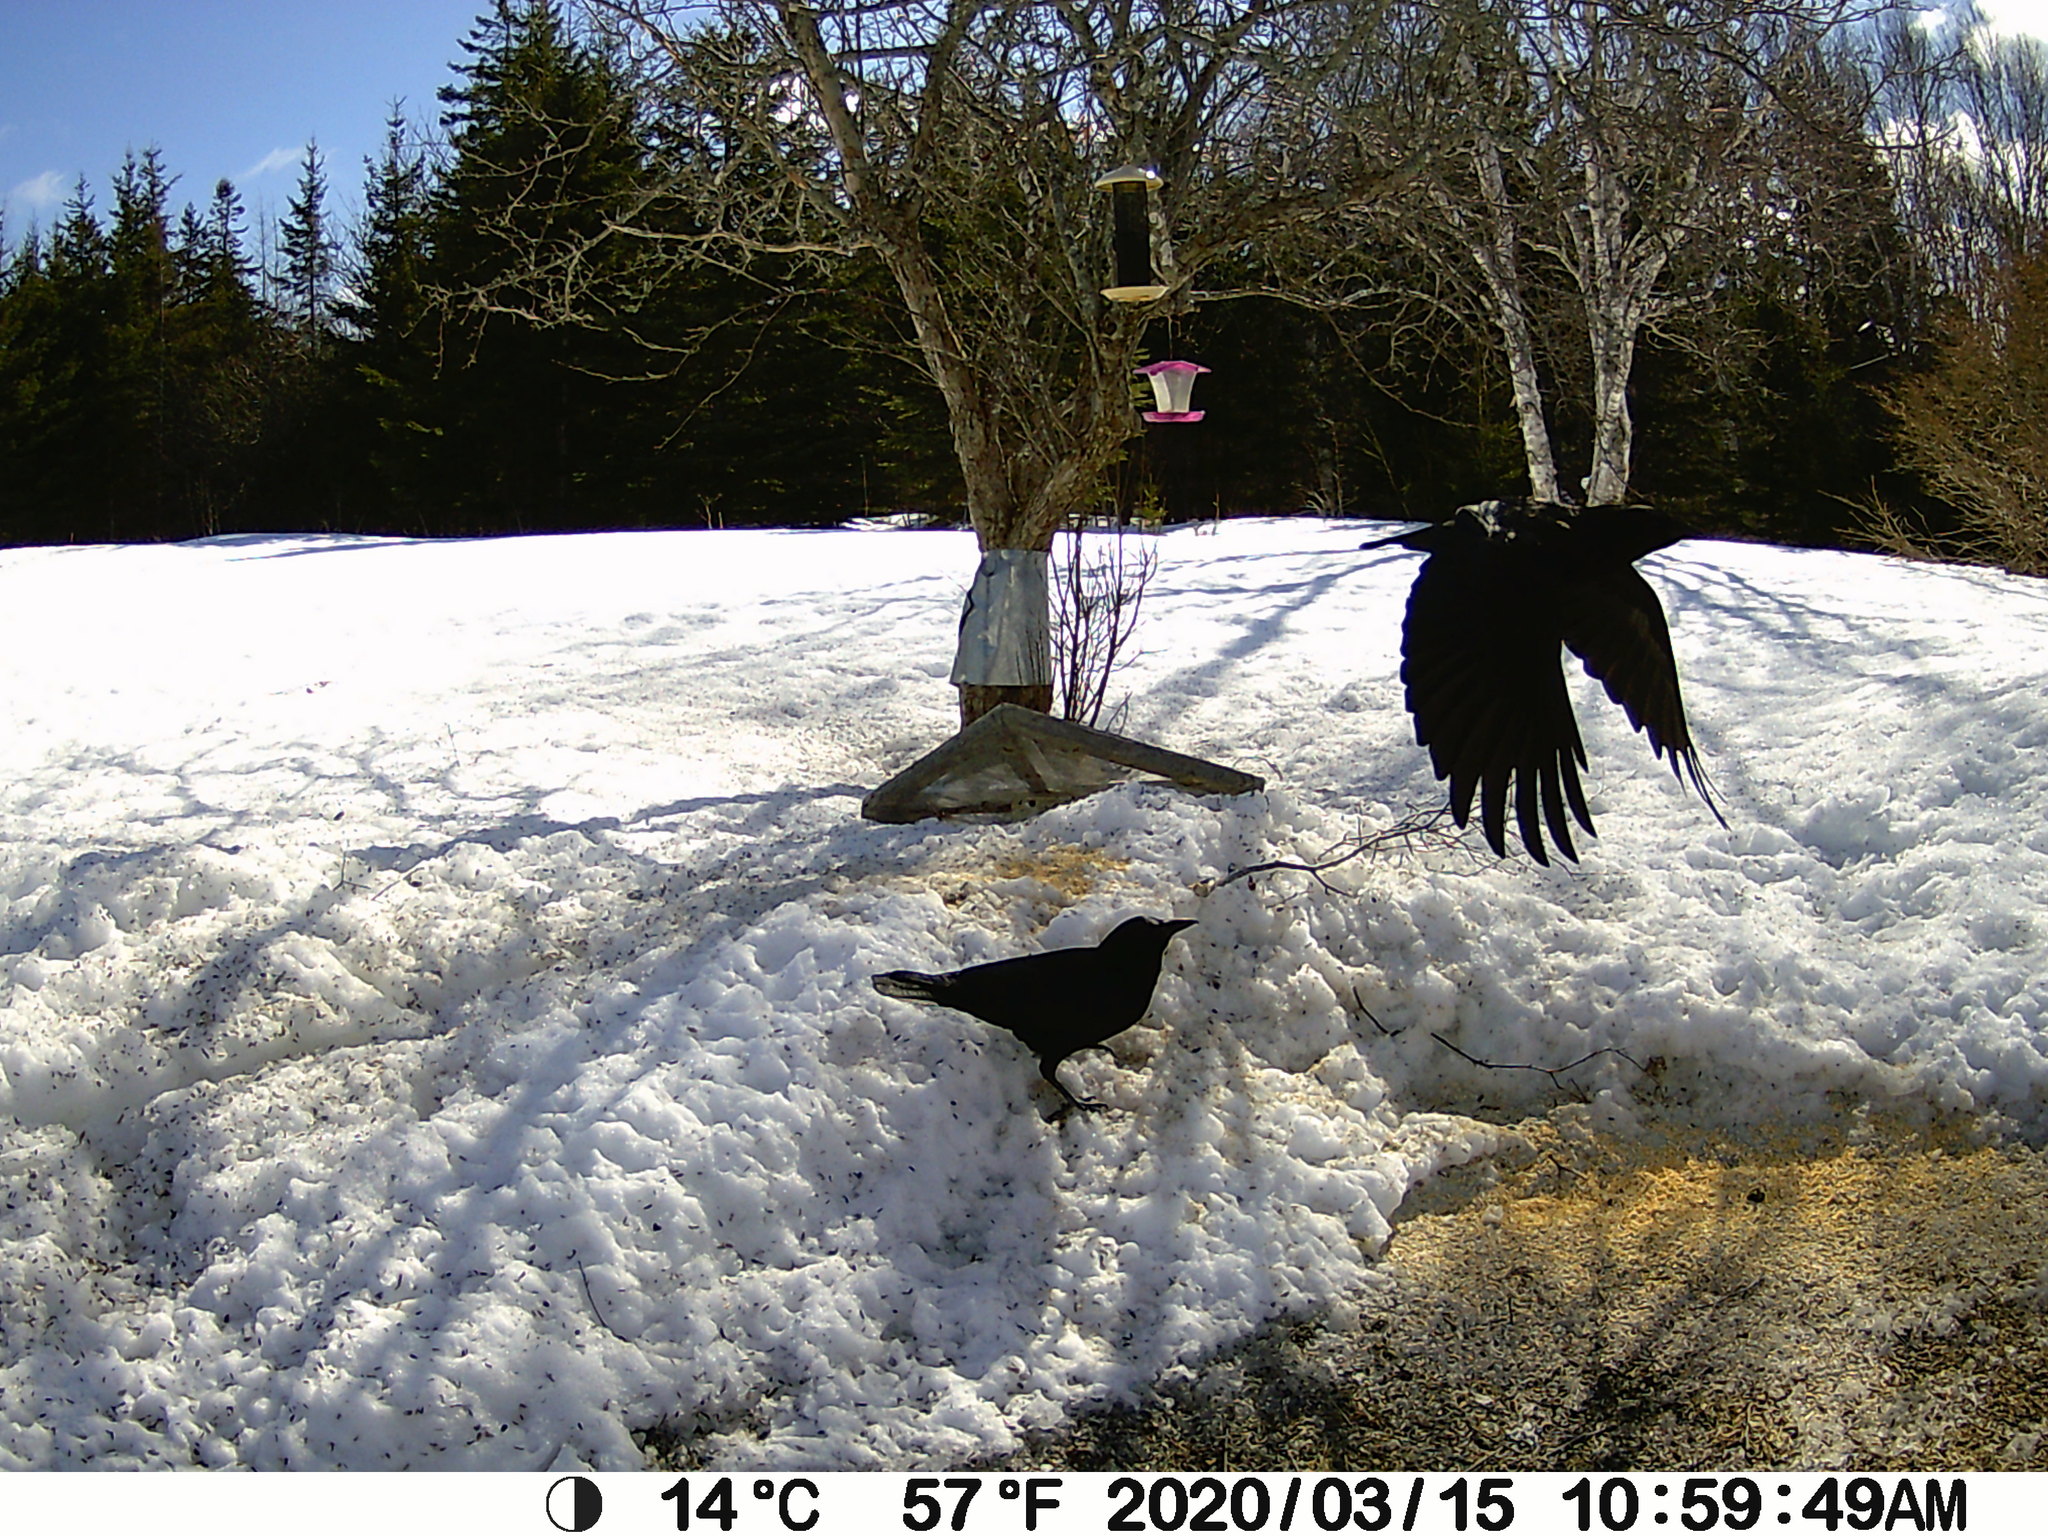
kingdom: Animalia
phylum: Chordata
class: Aves
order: Passeriformes
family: Corvidae
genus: Corvus
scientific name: Corvus brachyrhynchos
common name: American crow
